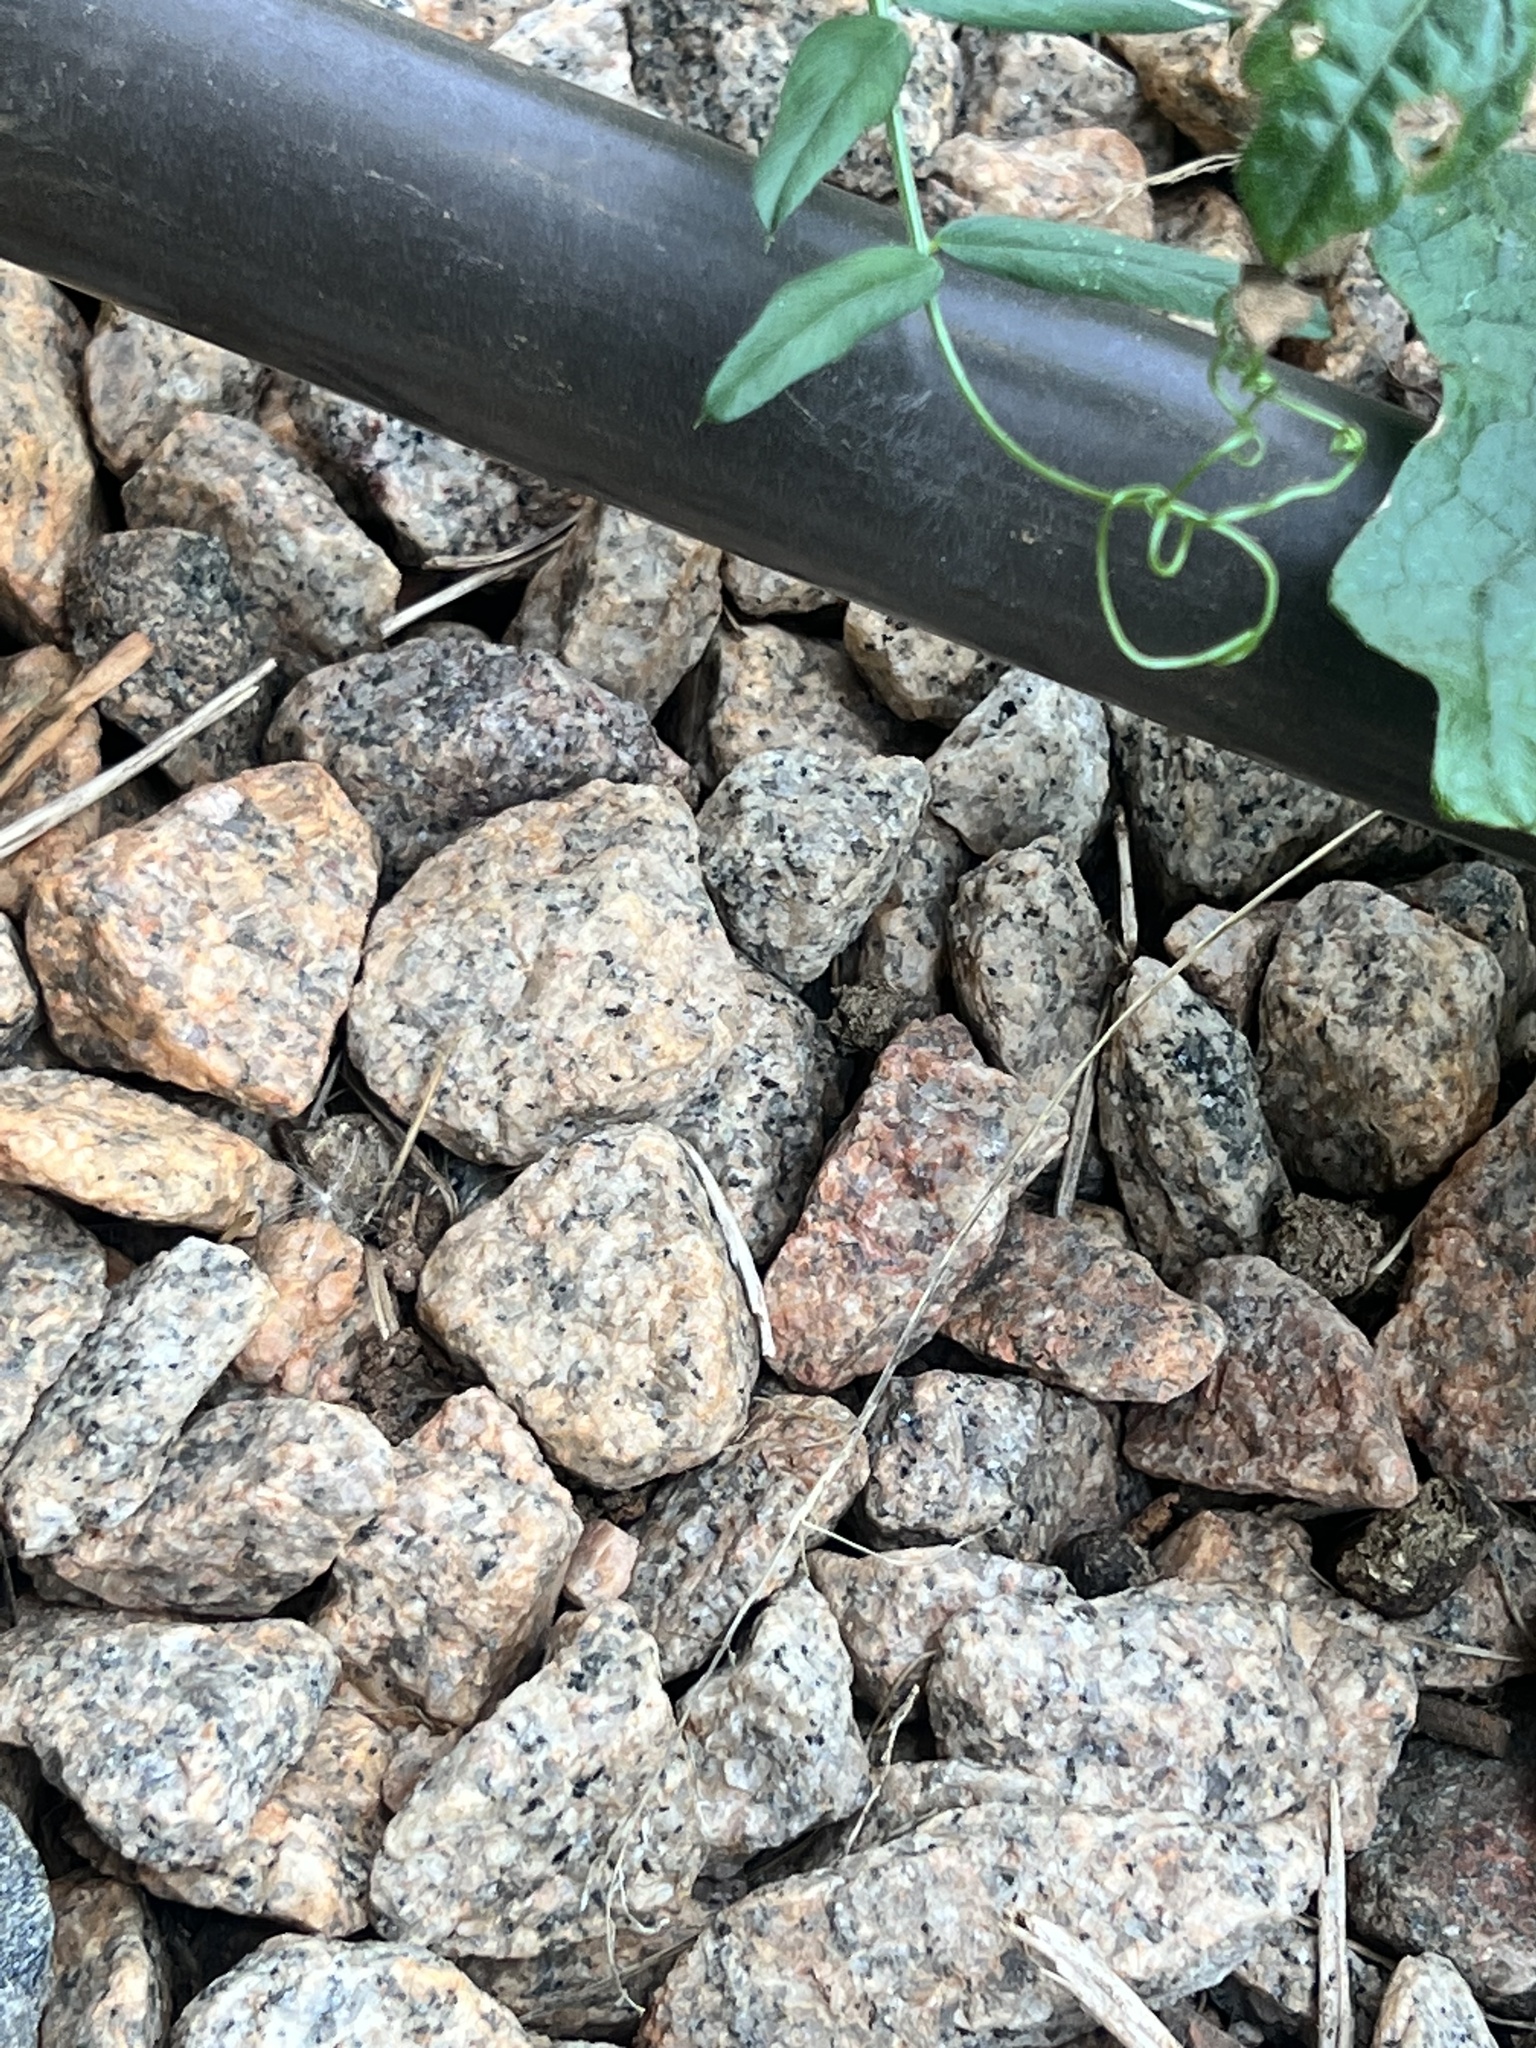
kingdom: Animalia
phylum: Chordata
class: Amphibia
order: Anura
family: Hylidae
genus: Dryophytes
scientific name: Dryophytes squirellus
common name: Squirrel treefrog
